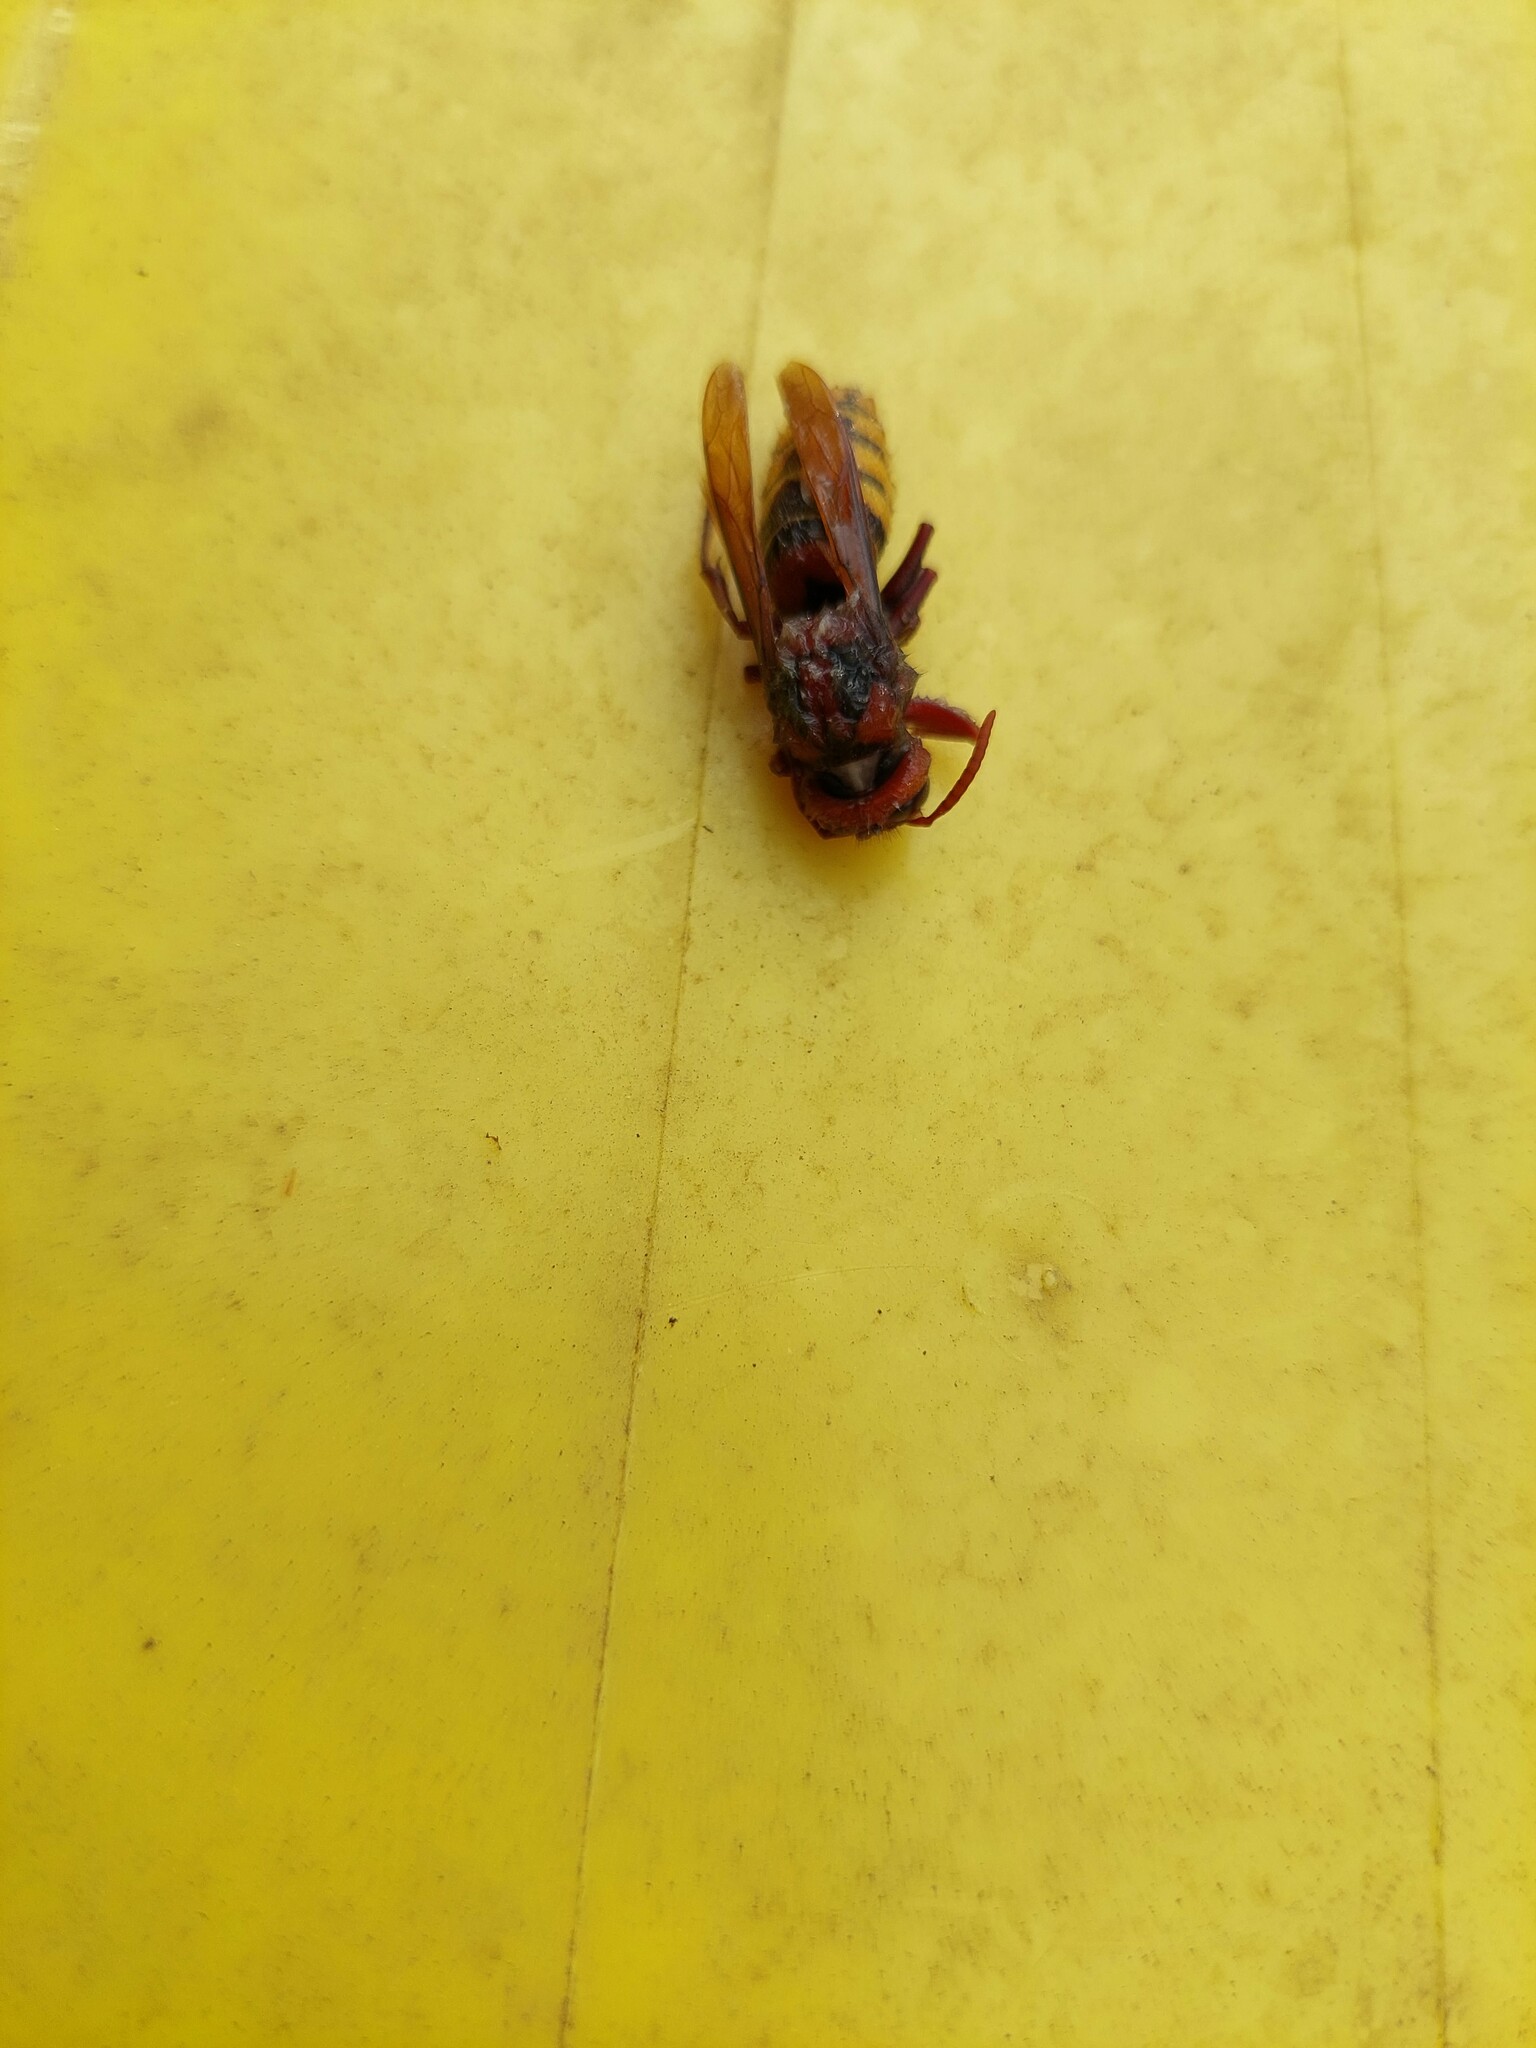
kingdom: Animalia
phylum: Arthropoda
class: Insecta
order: Hymenoptera
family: Vespidae
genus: Vespa
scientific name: Vespa crabro
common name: Hornet
